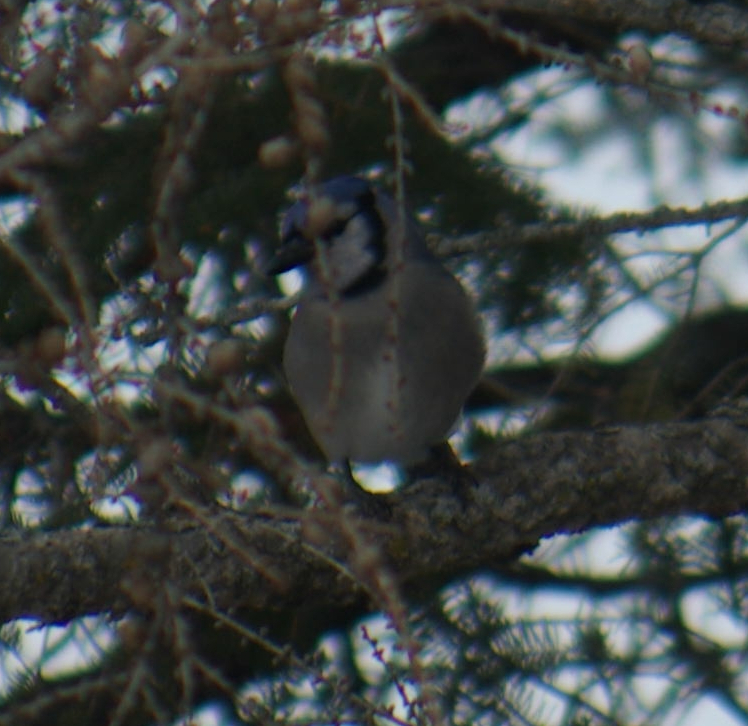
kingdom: Animalia
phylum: Chordata
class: Aves
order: Passeriformes
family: Corvidae
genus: Cyanocitta
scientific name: Cyanocitta cristata
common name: Blue jay
